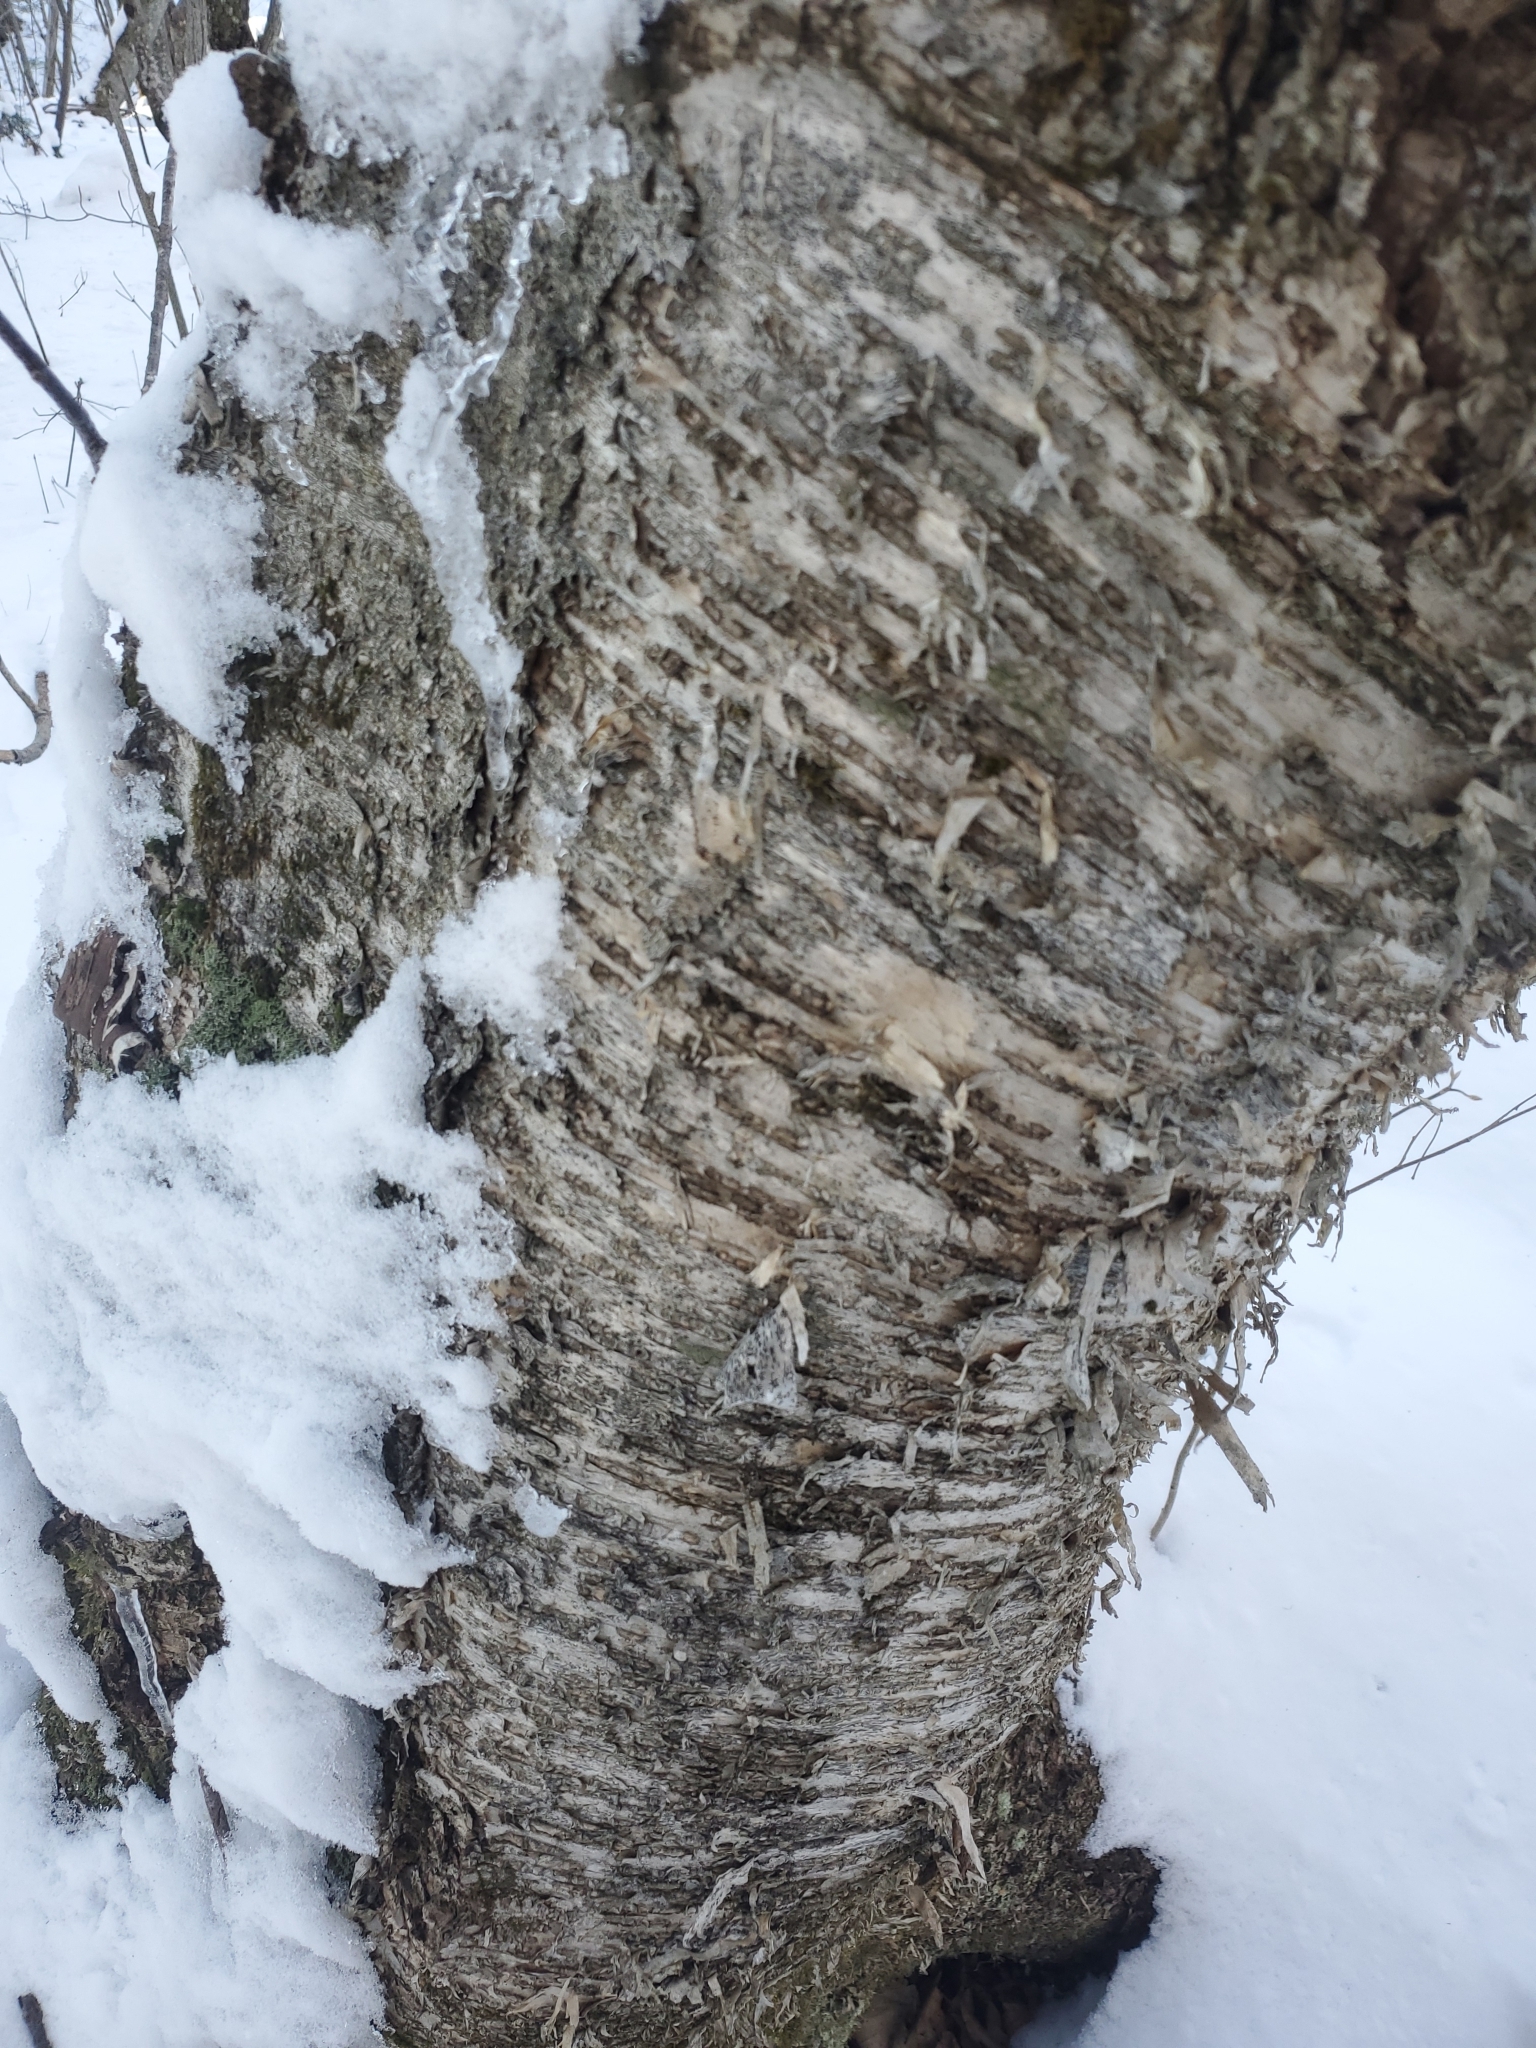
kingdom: Plantae
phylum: Tracheophyta
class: Magnoliopsida
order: Fagales
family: Betulaceae
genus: Betula
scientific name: Betula alleghaniensis
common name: Yellow birch
